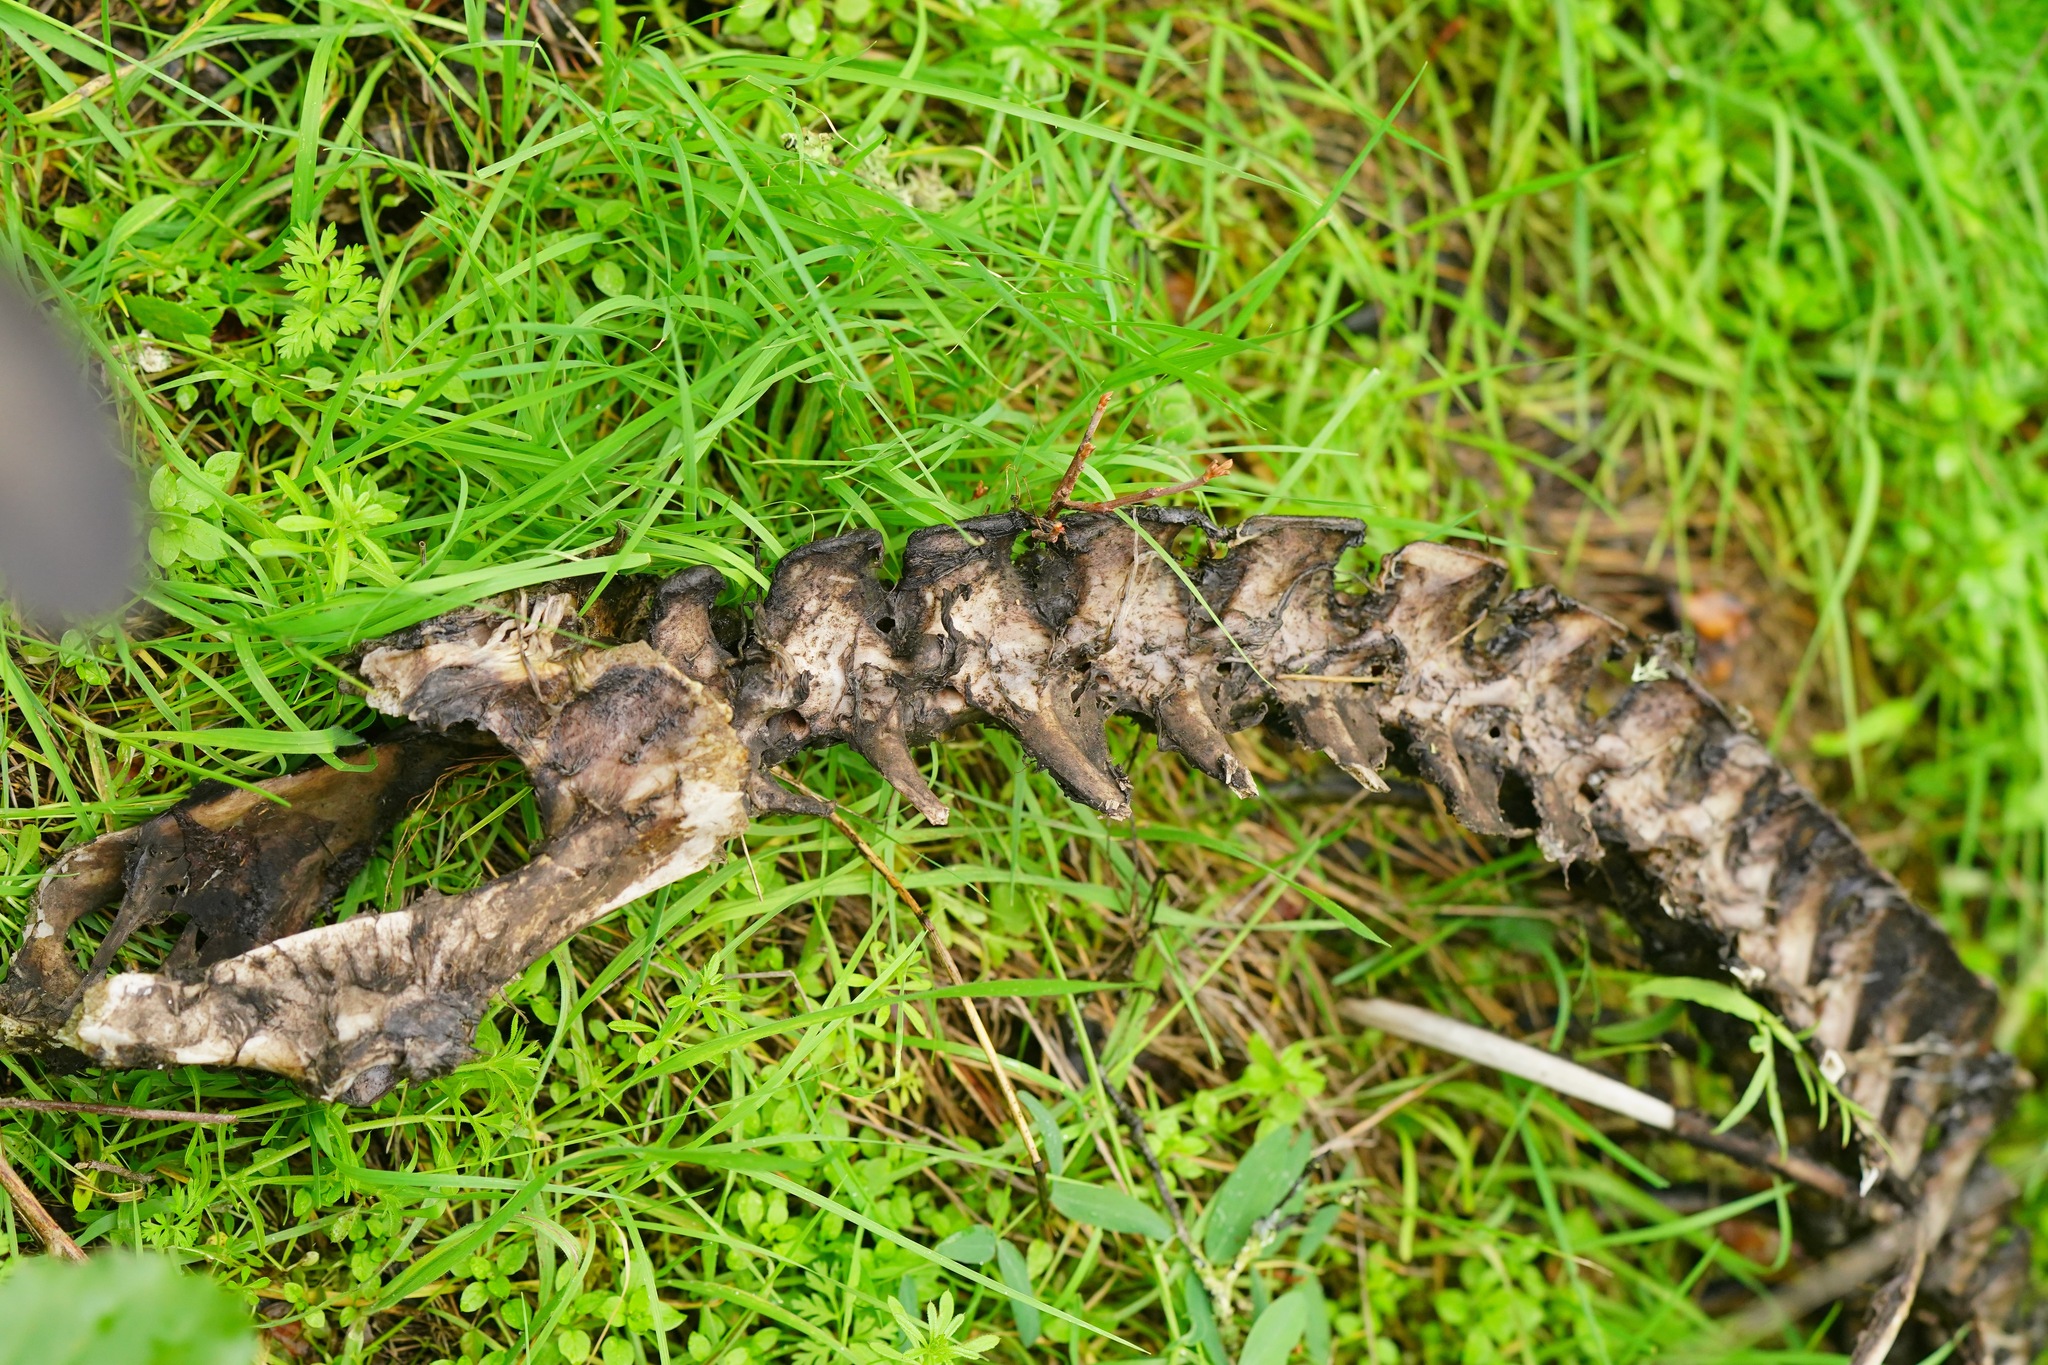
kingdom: Animalia
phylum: Chordata
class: Mammalia
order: Artiodactyla
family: Cervidae
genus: Odocoileus
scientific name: Odocoileus hemionus
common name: Mule deer
